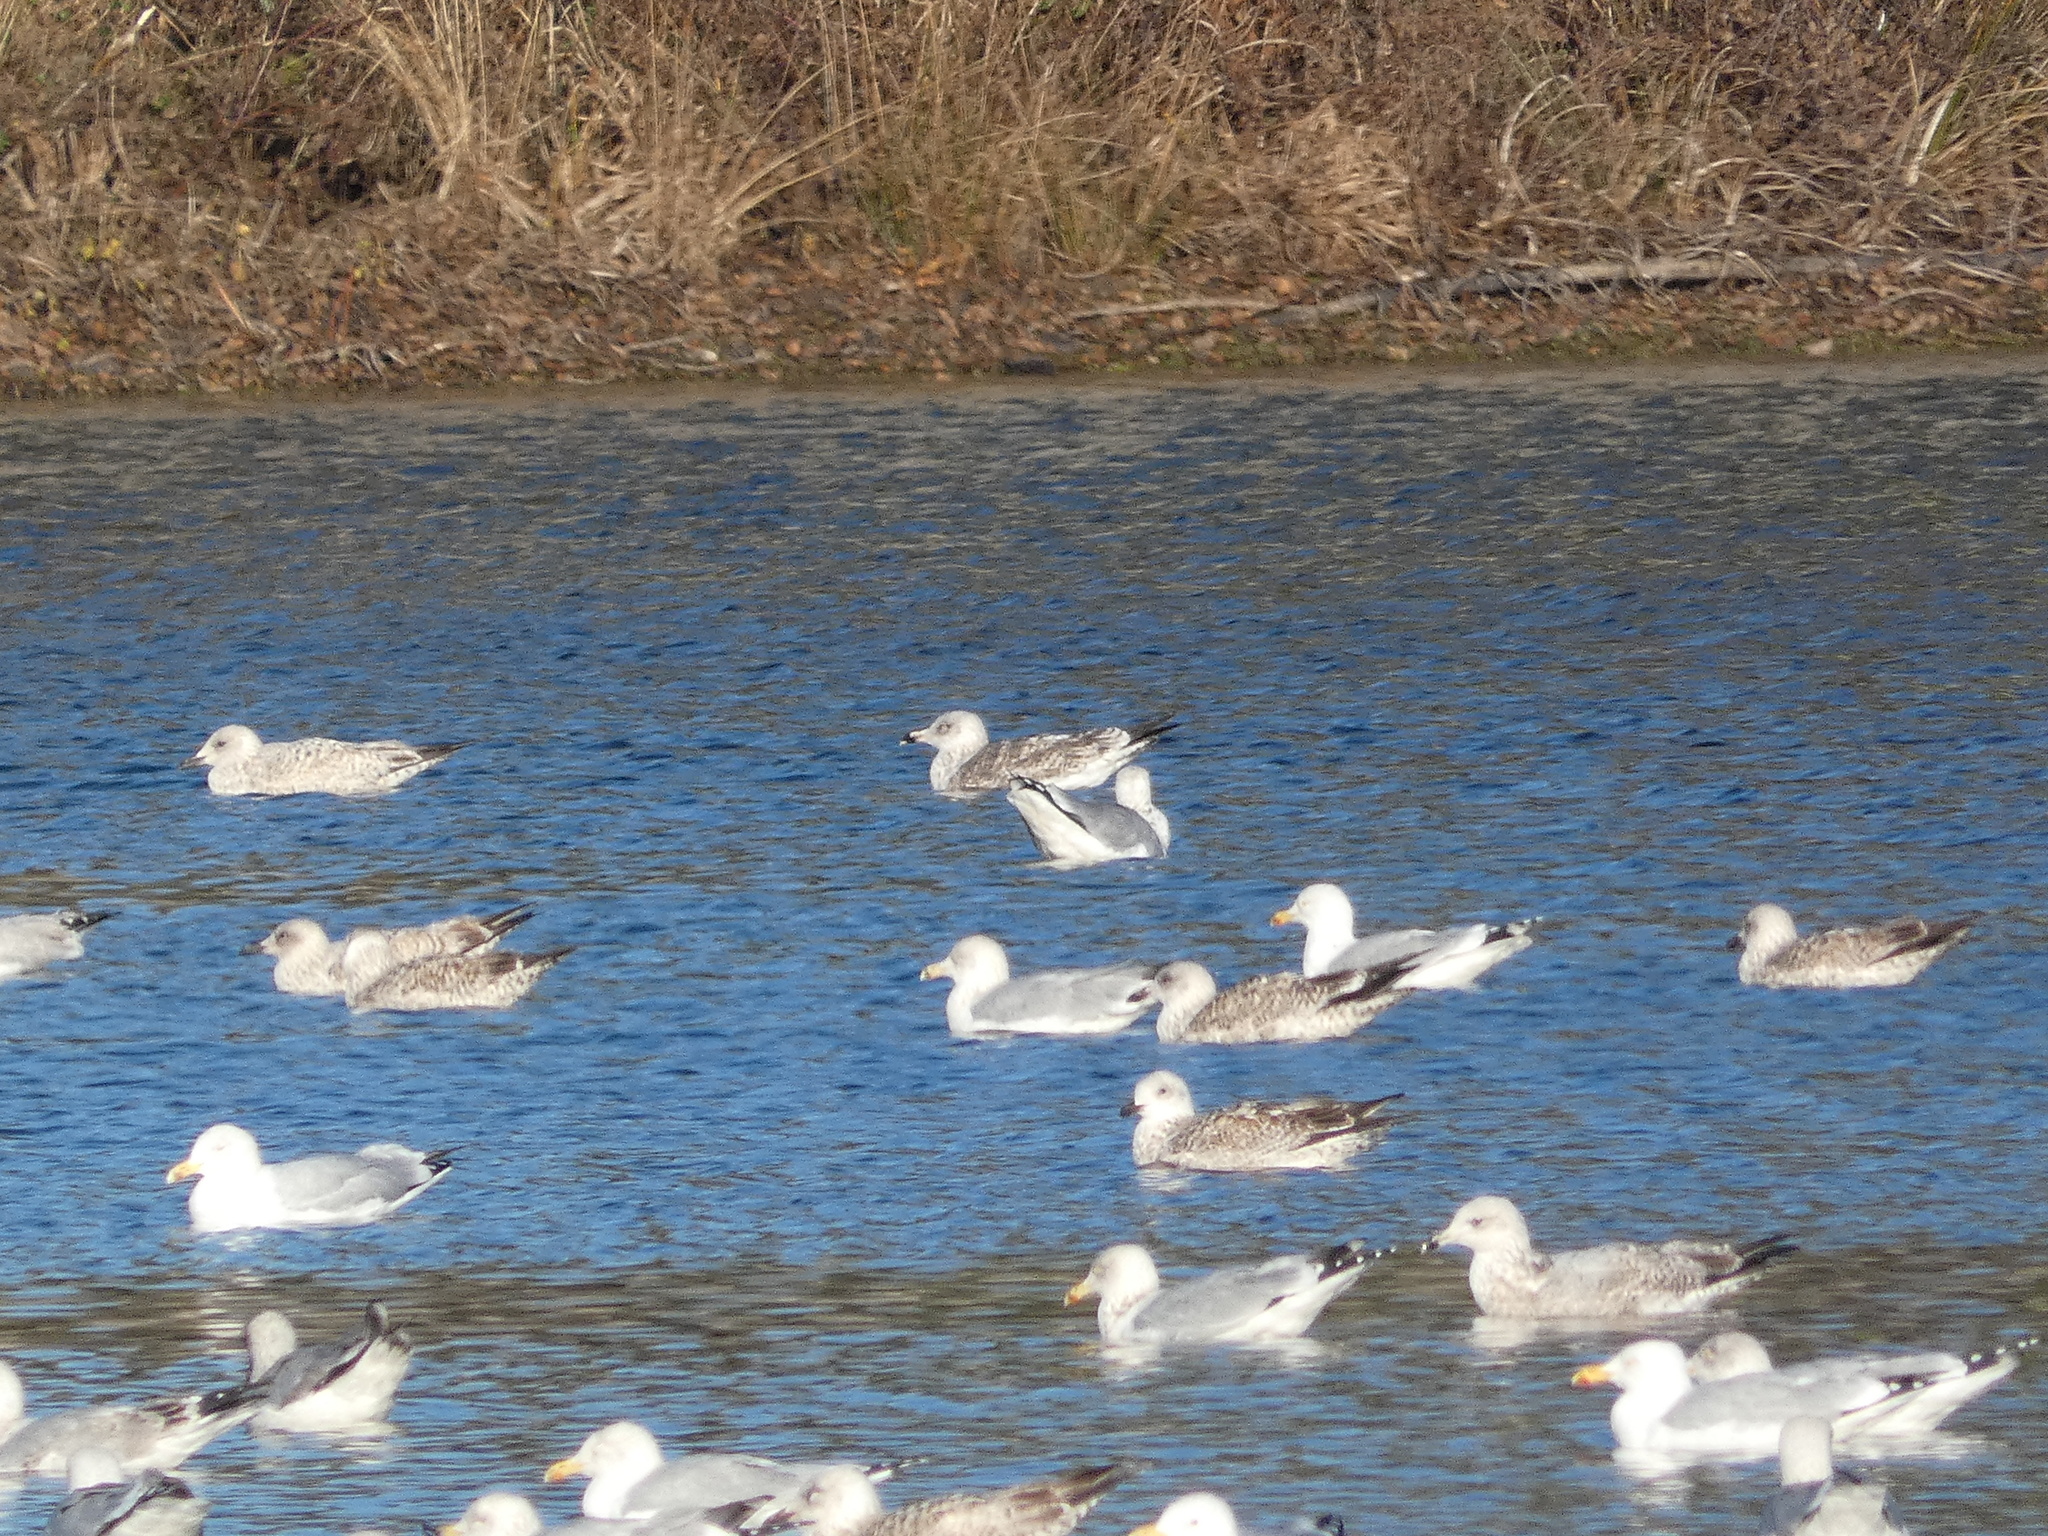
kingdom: Animalia
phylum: Chordata
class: Aves
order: Charadriiformes
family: Laridae
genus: Larus
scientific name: Larus argentatus
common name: Herring gull
